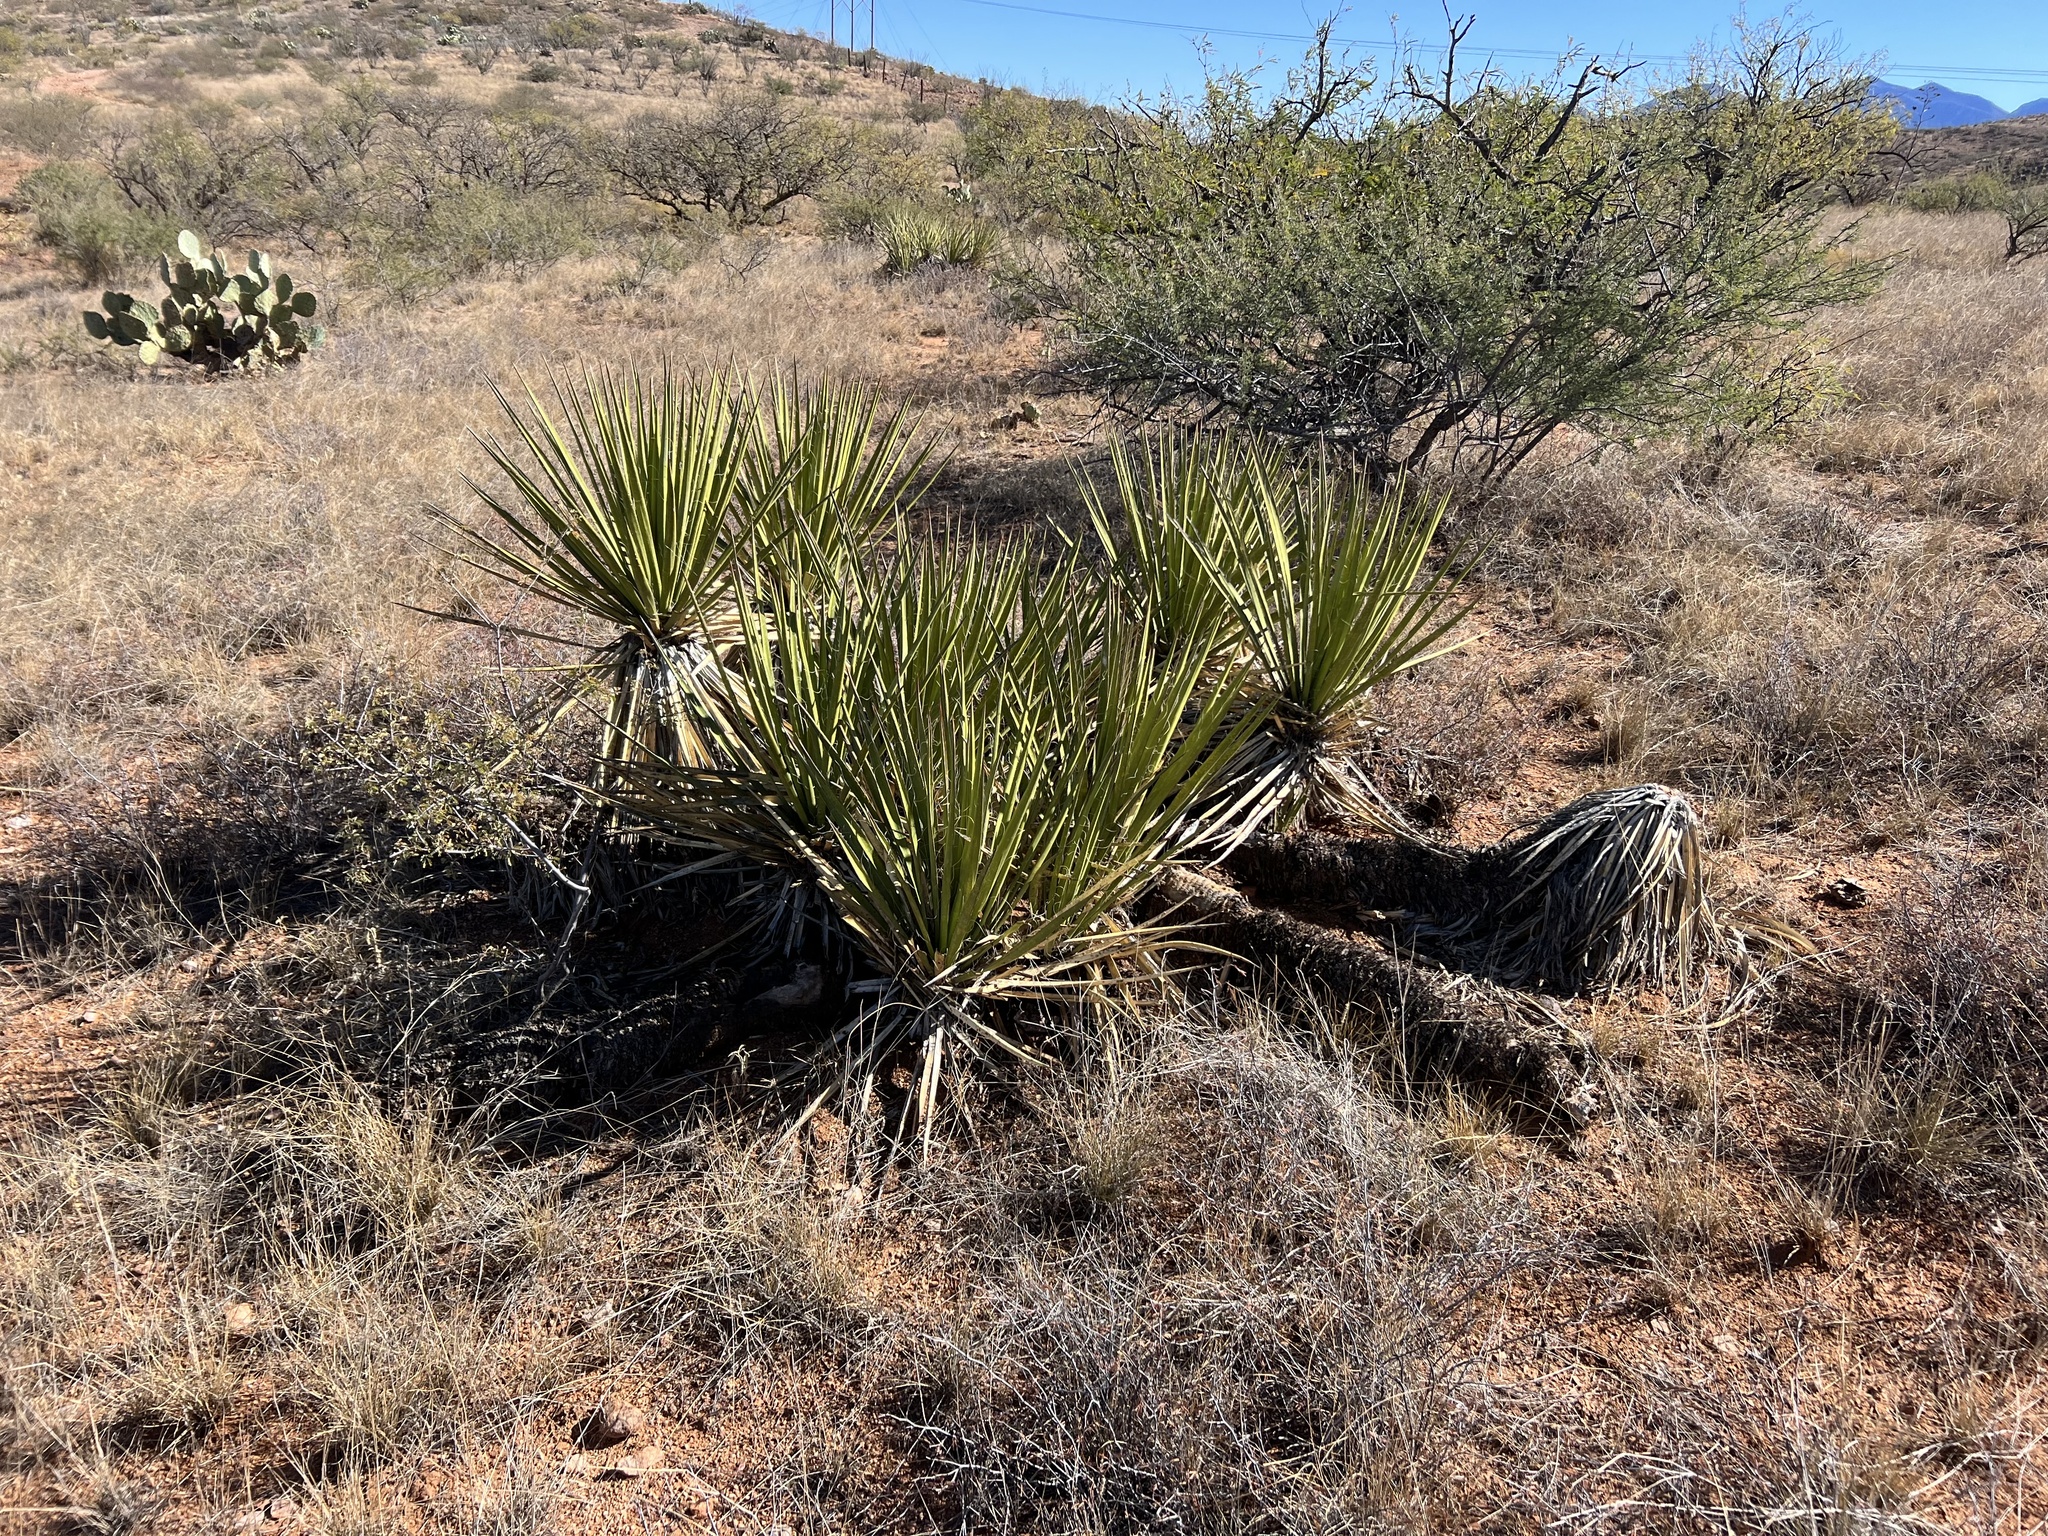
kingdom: Plantae
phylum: Tracheophyta
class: Liliopsida
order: Asparagales
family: Asparagaceae
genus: Yucca
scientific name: Yucca baccata
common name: Banana yucca
